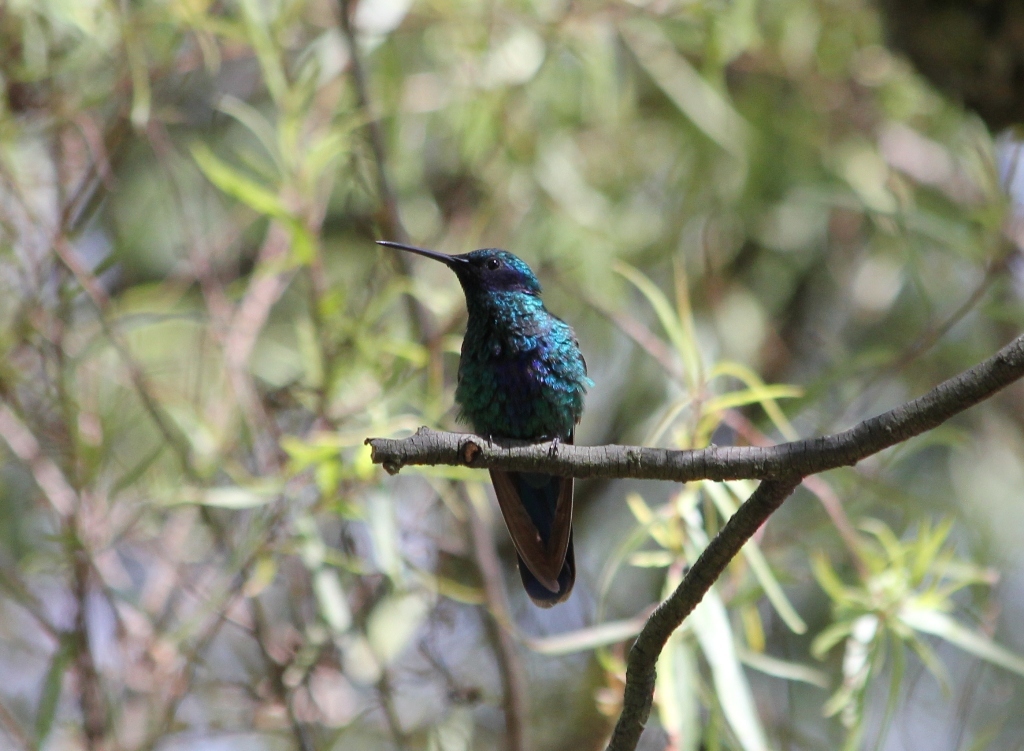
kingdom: Animalia
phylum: Chordata
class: Aves
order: Apodiformes
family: Trochilidae
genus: Colibri
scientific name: Colibri coruscans
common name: Sparkling violetear
